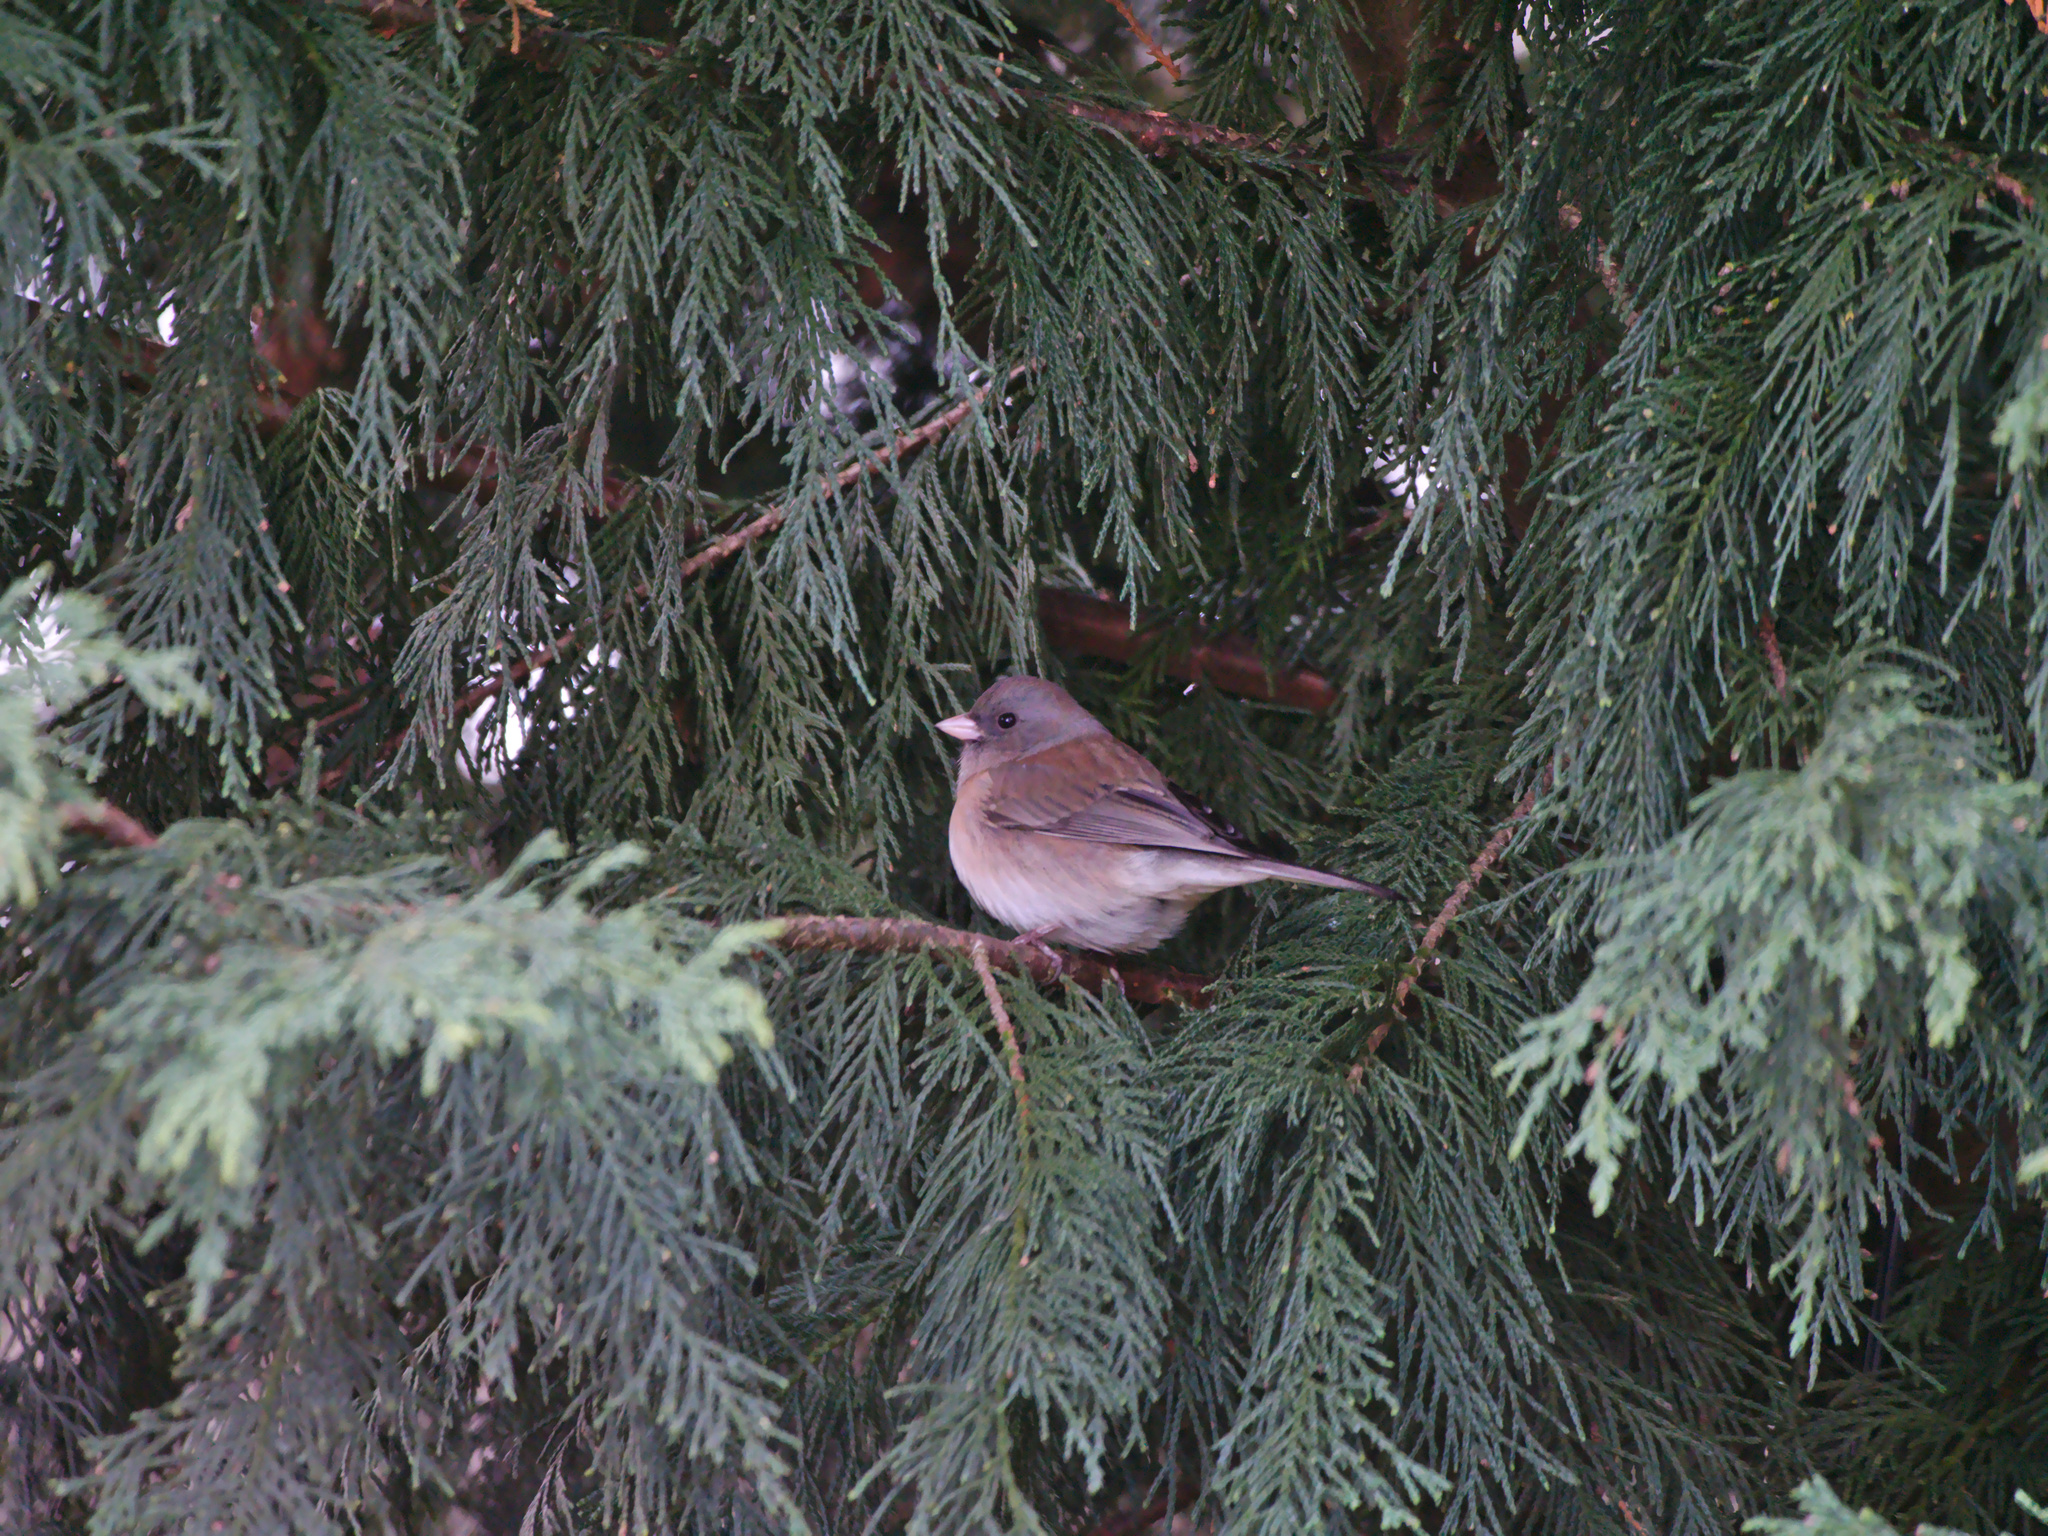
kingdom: Animalia
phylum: Chordata
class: Aves
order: Passeriformes
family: Passerellidae
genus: Junco
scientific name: Junco hyemalis
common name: Dark-eyed junco
